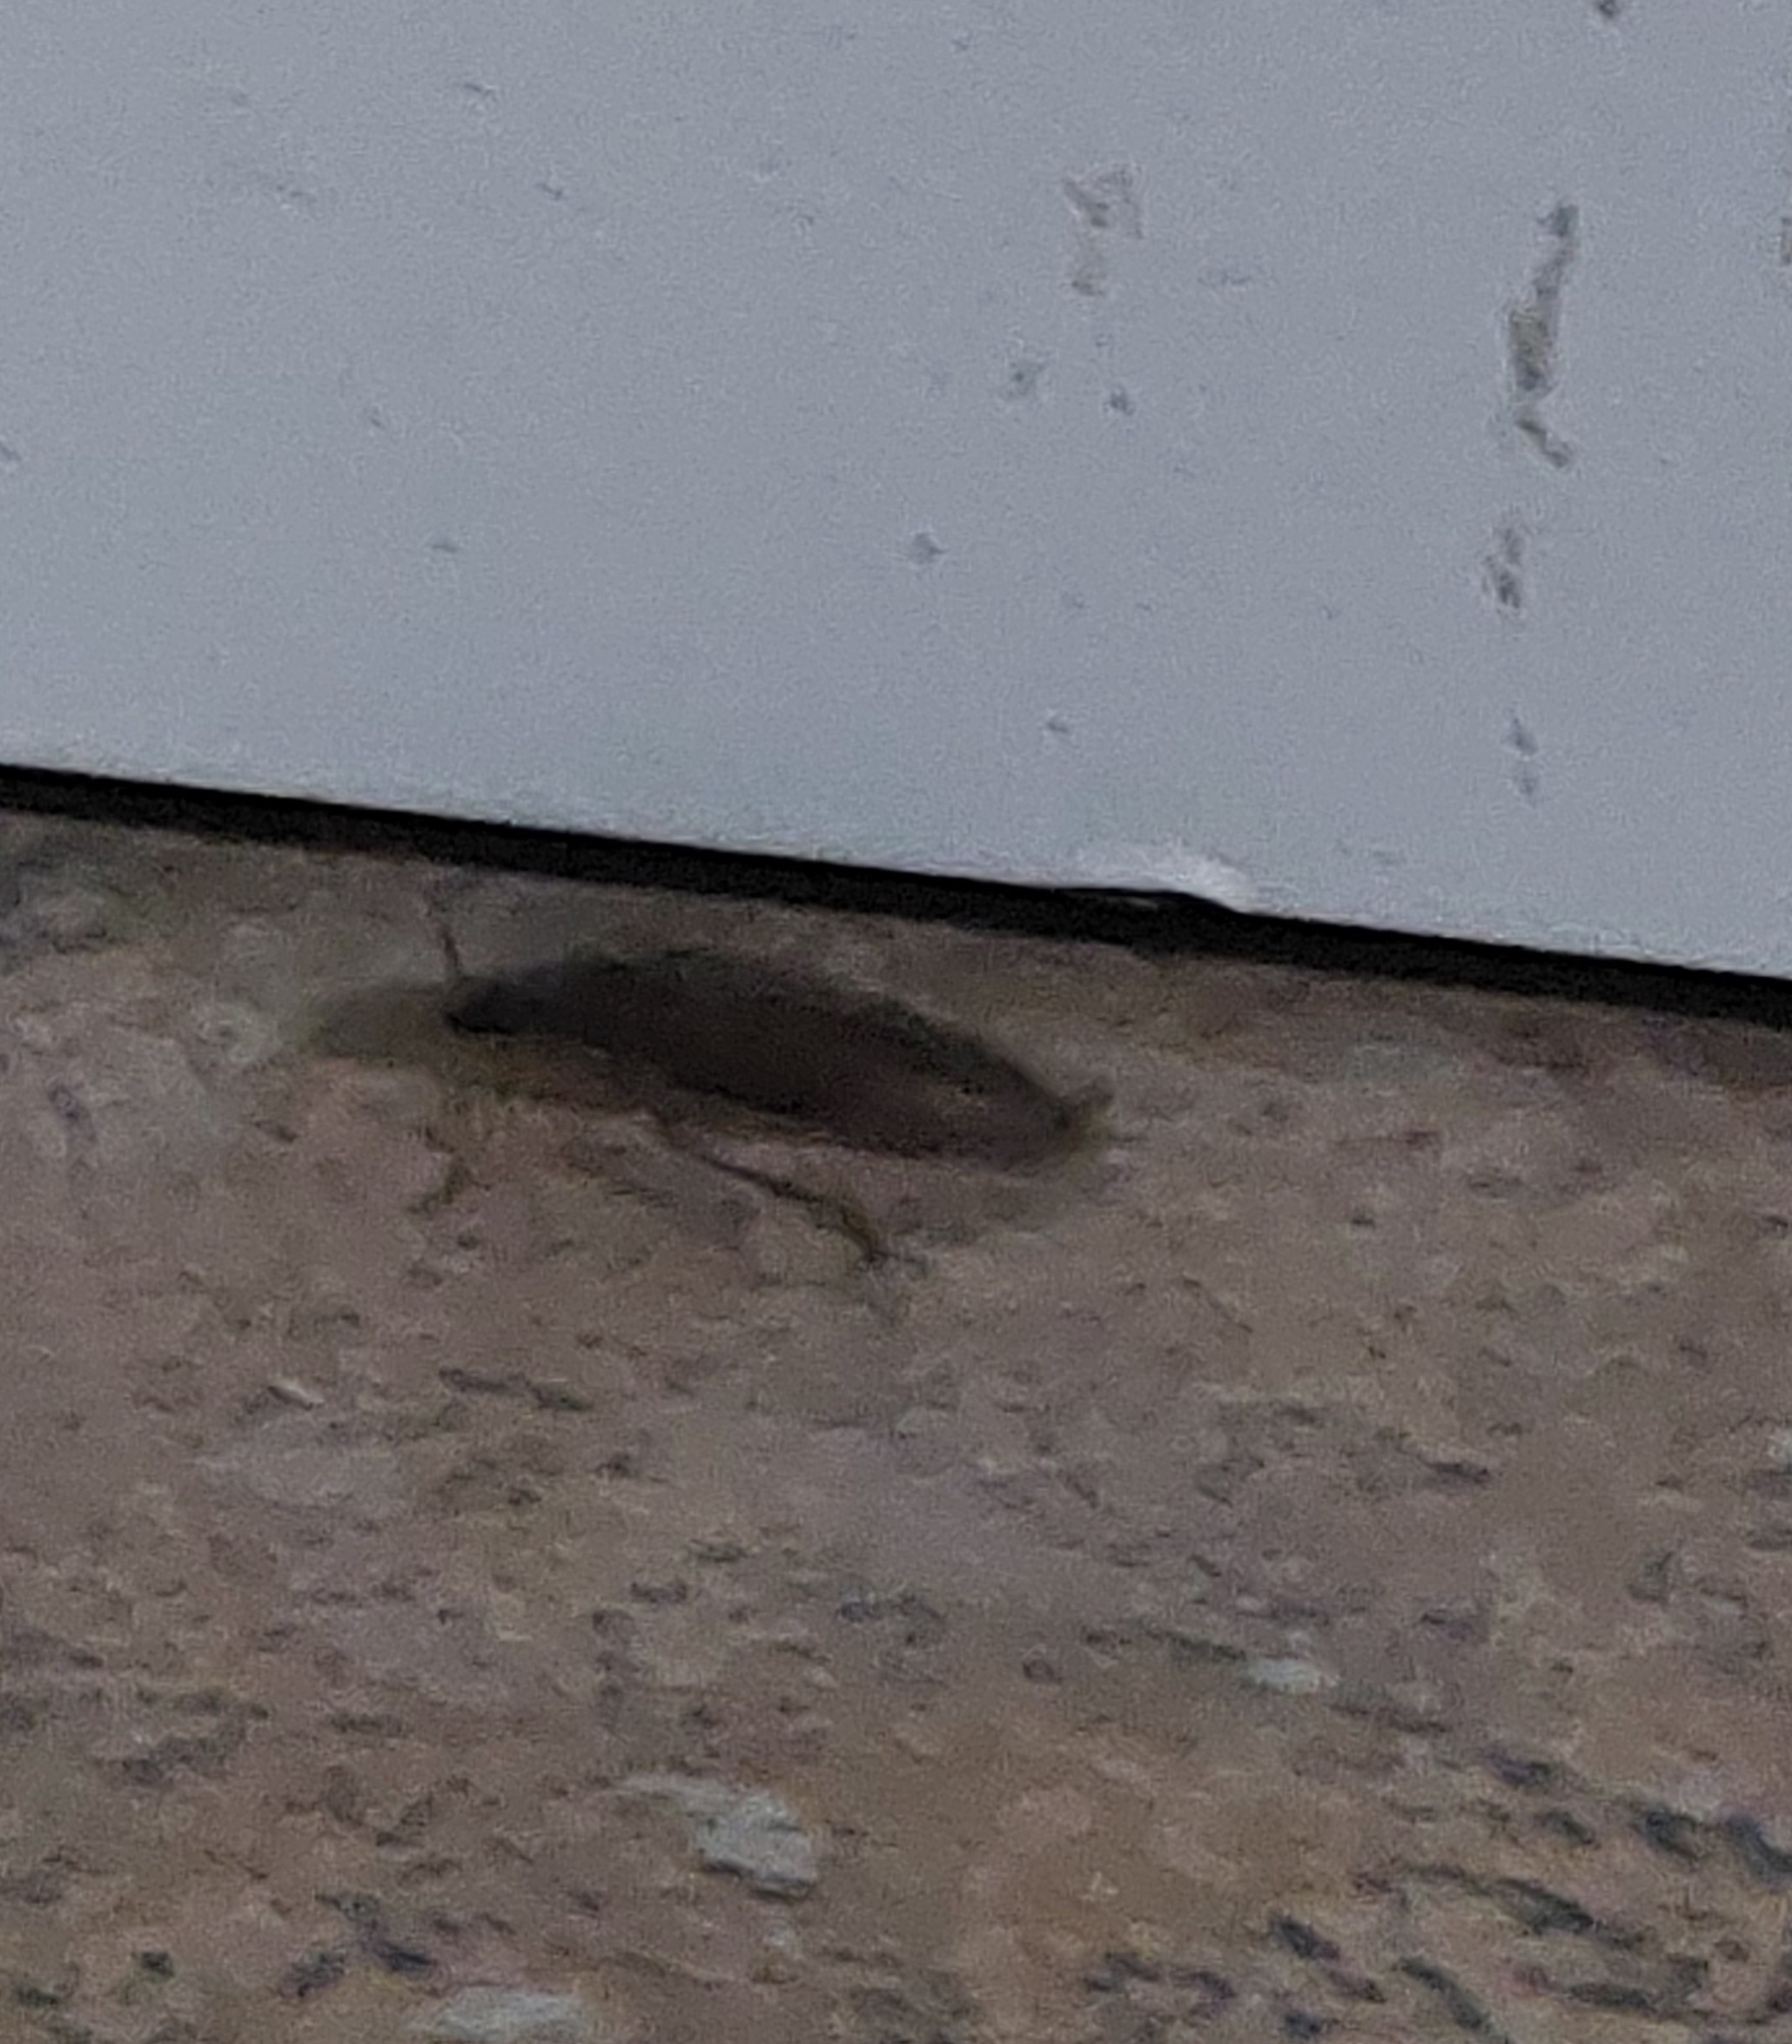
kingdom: Animalia
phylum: Arthropoda
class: Insecta
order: Coleoptera
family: Elateridae
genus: Monocrepidius
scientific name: Monocrepidius
